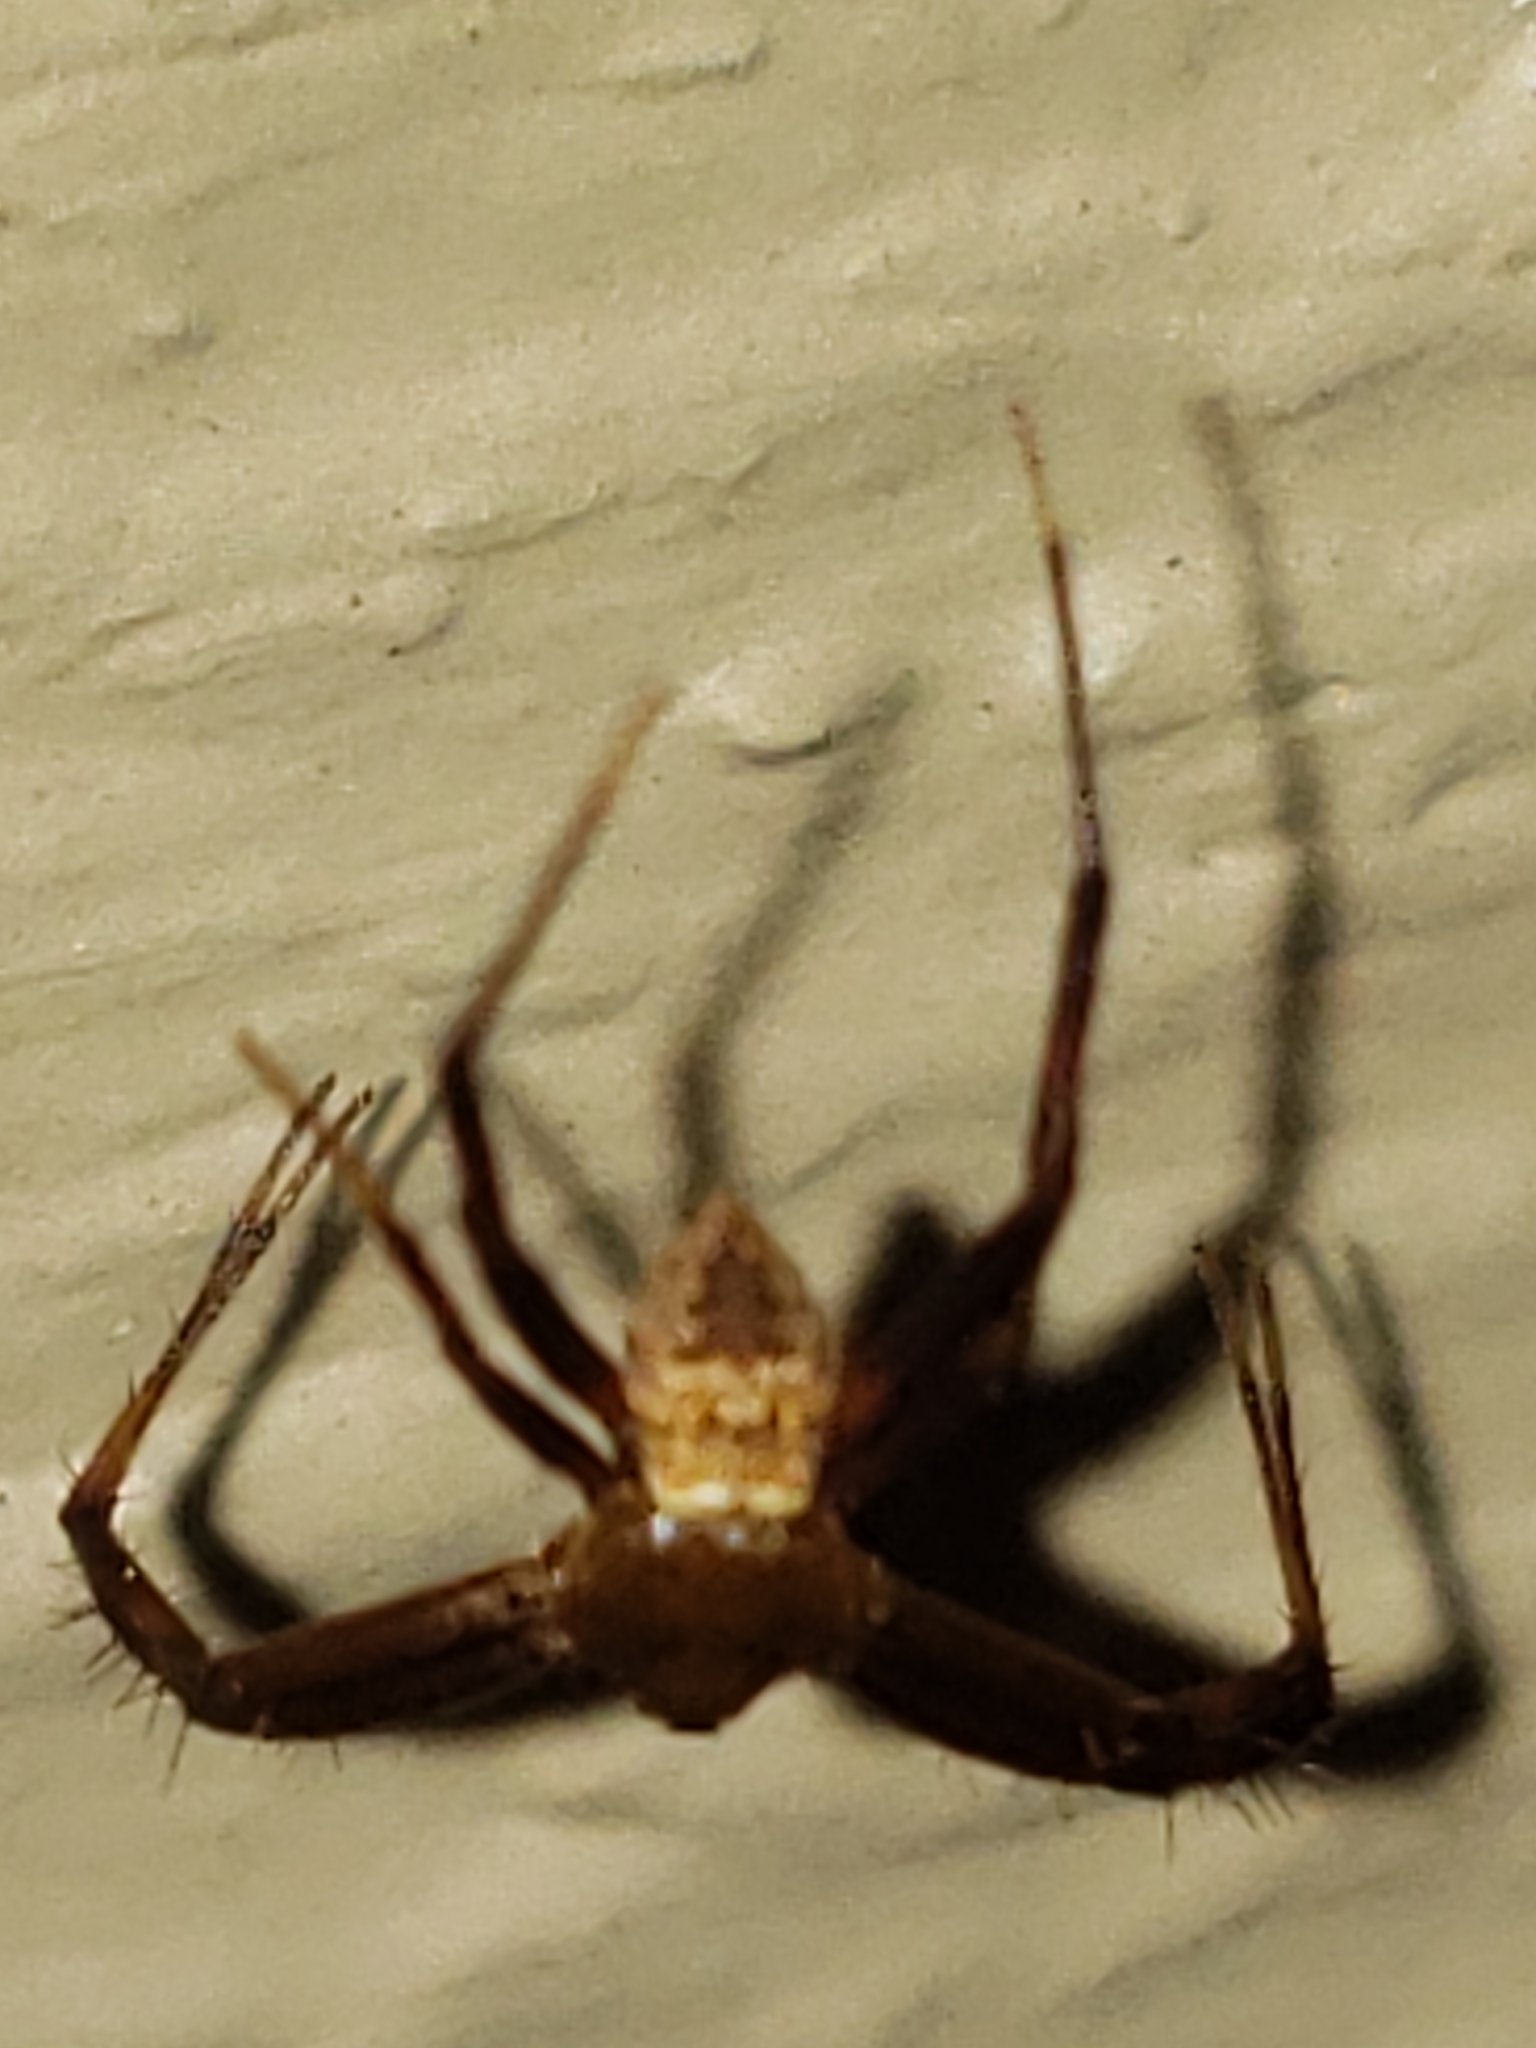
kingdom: Animalia
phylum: Arthropoda
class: Arachnida
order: Araneae
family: Araneidae
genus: Gea
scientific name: Gea heptagon
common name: Orb weavers
